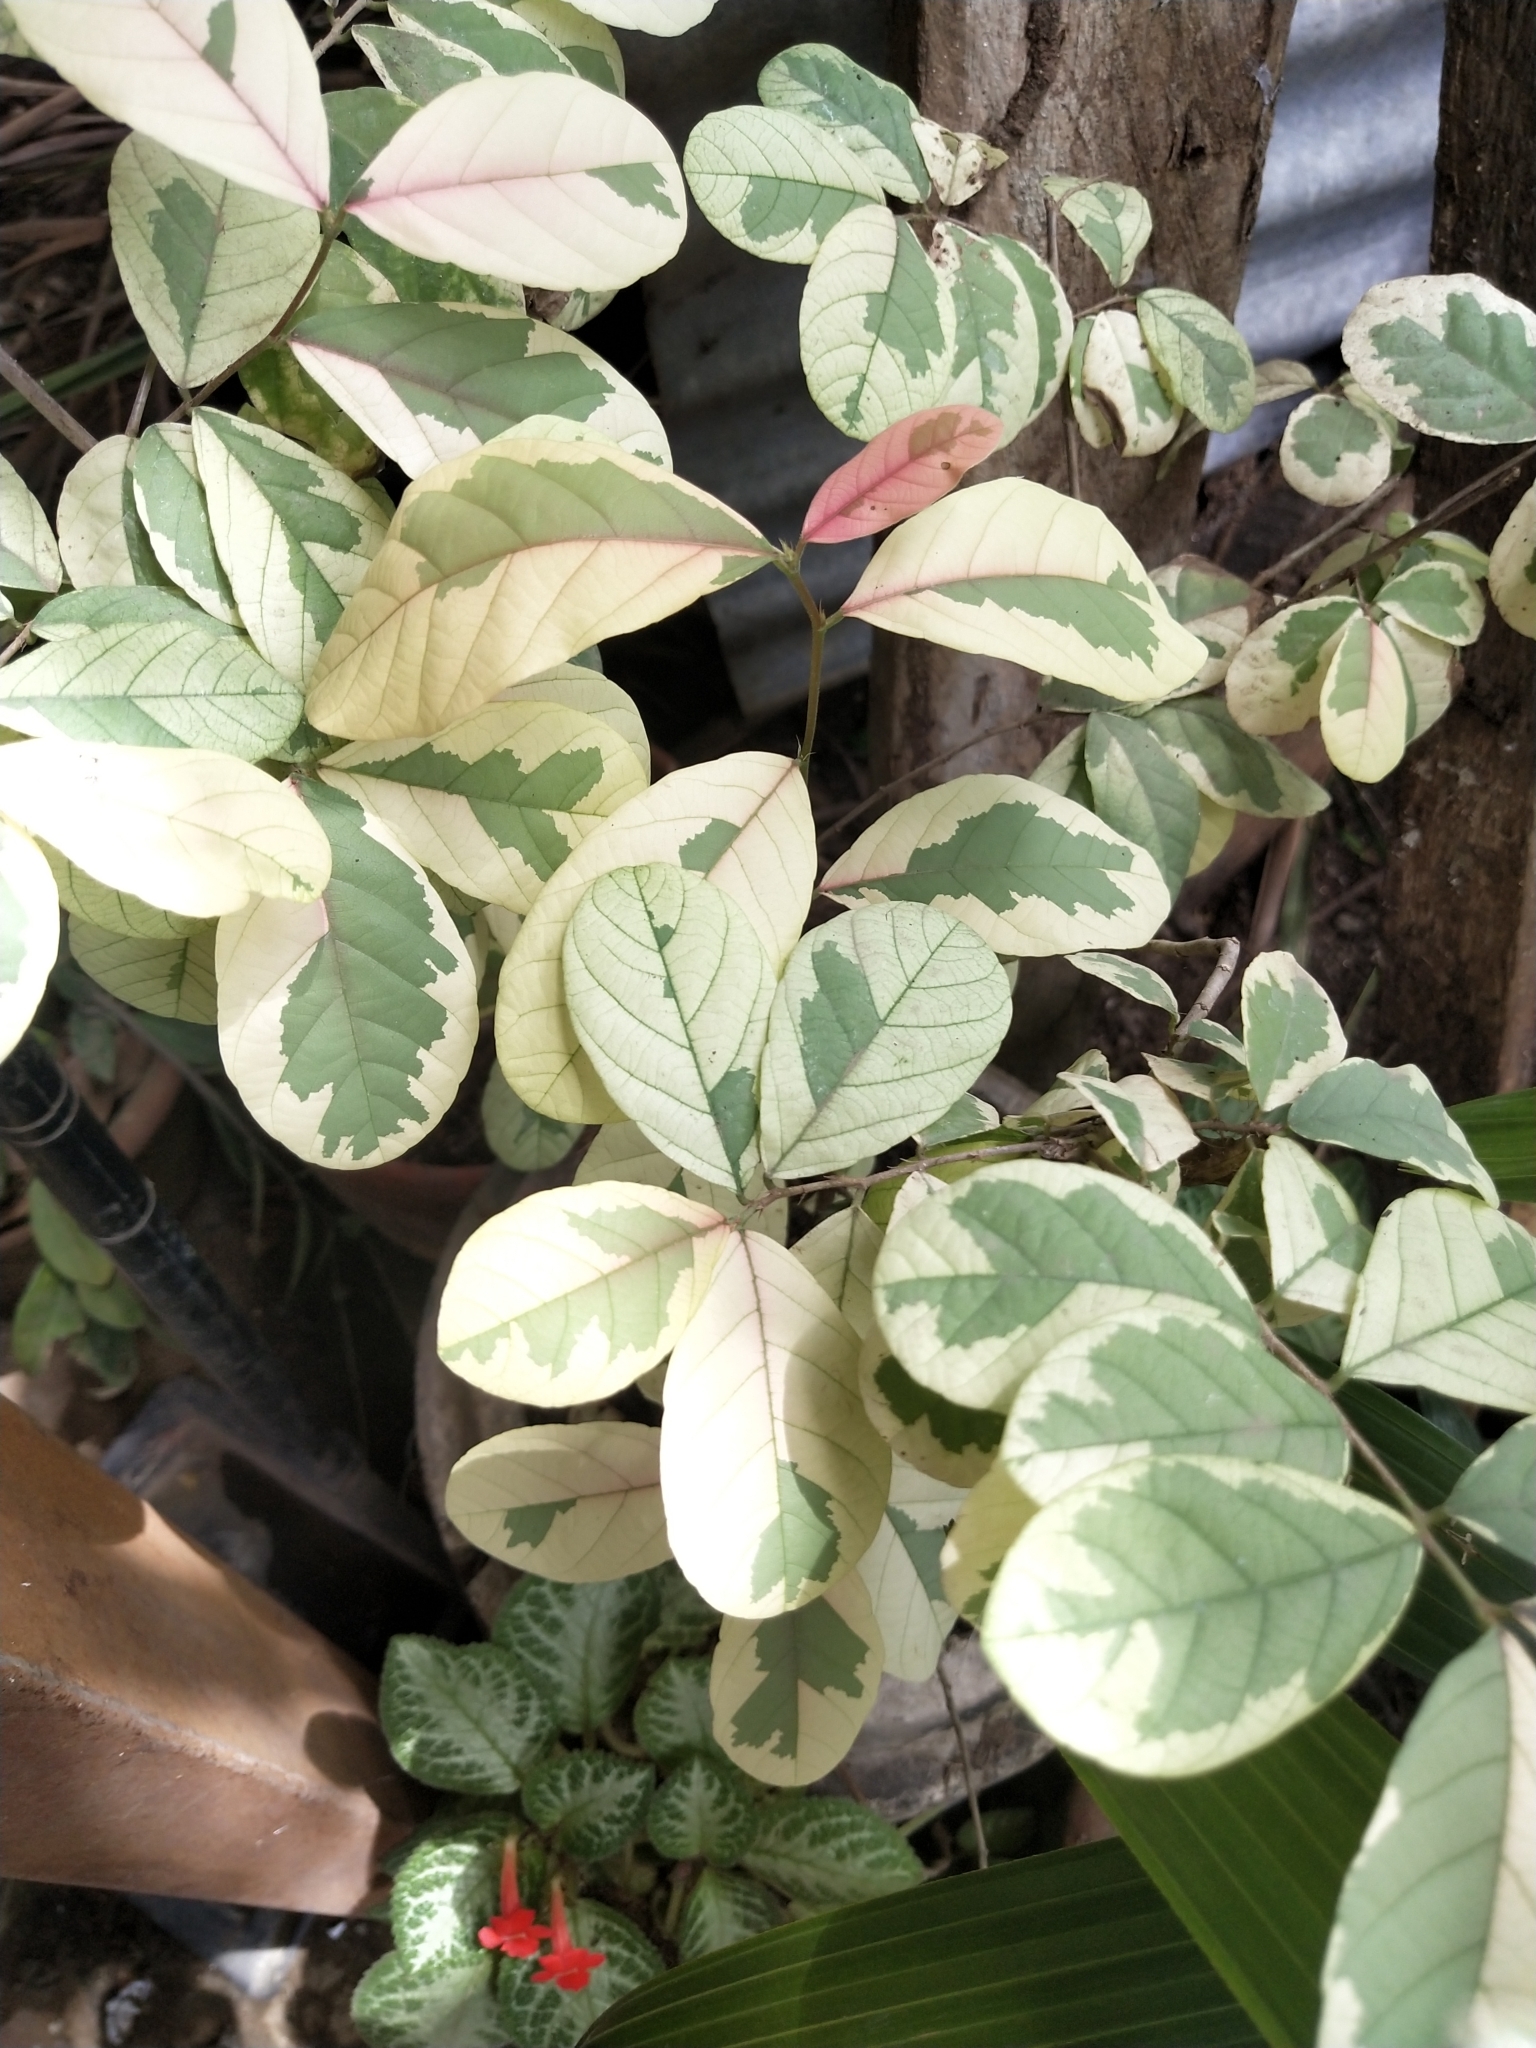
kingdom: Plantae
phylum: Tracheophyta
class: Magnoliopsida
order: Malpighiales
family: Phyllanthaceae
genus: Bridelia
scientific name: Bridelia ovata
